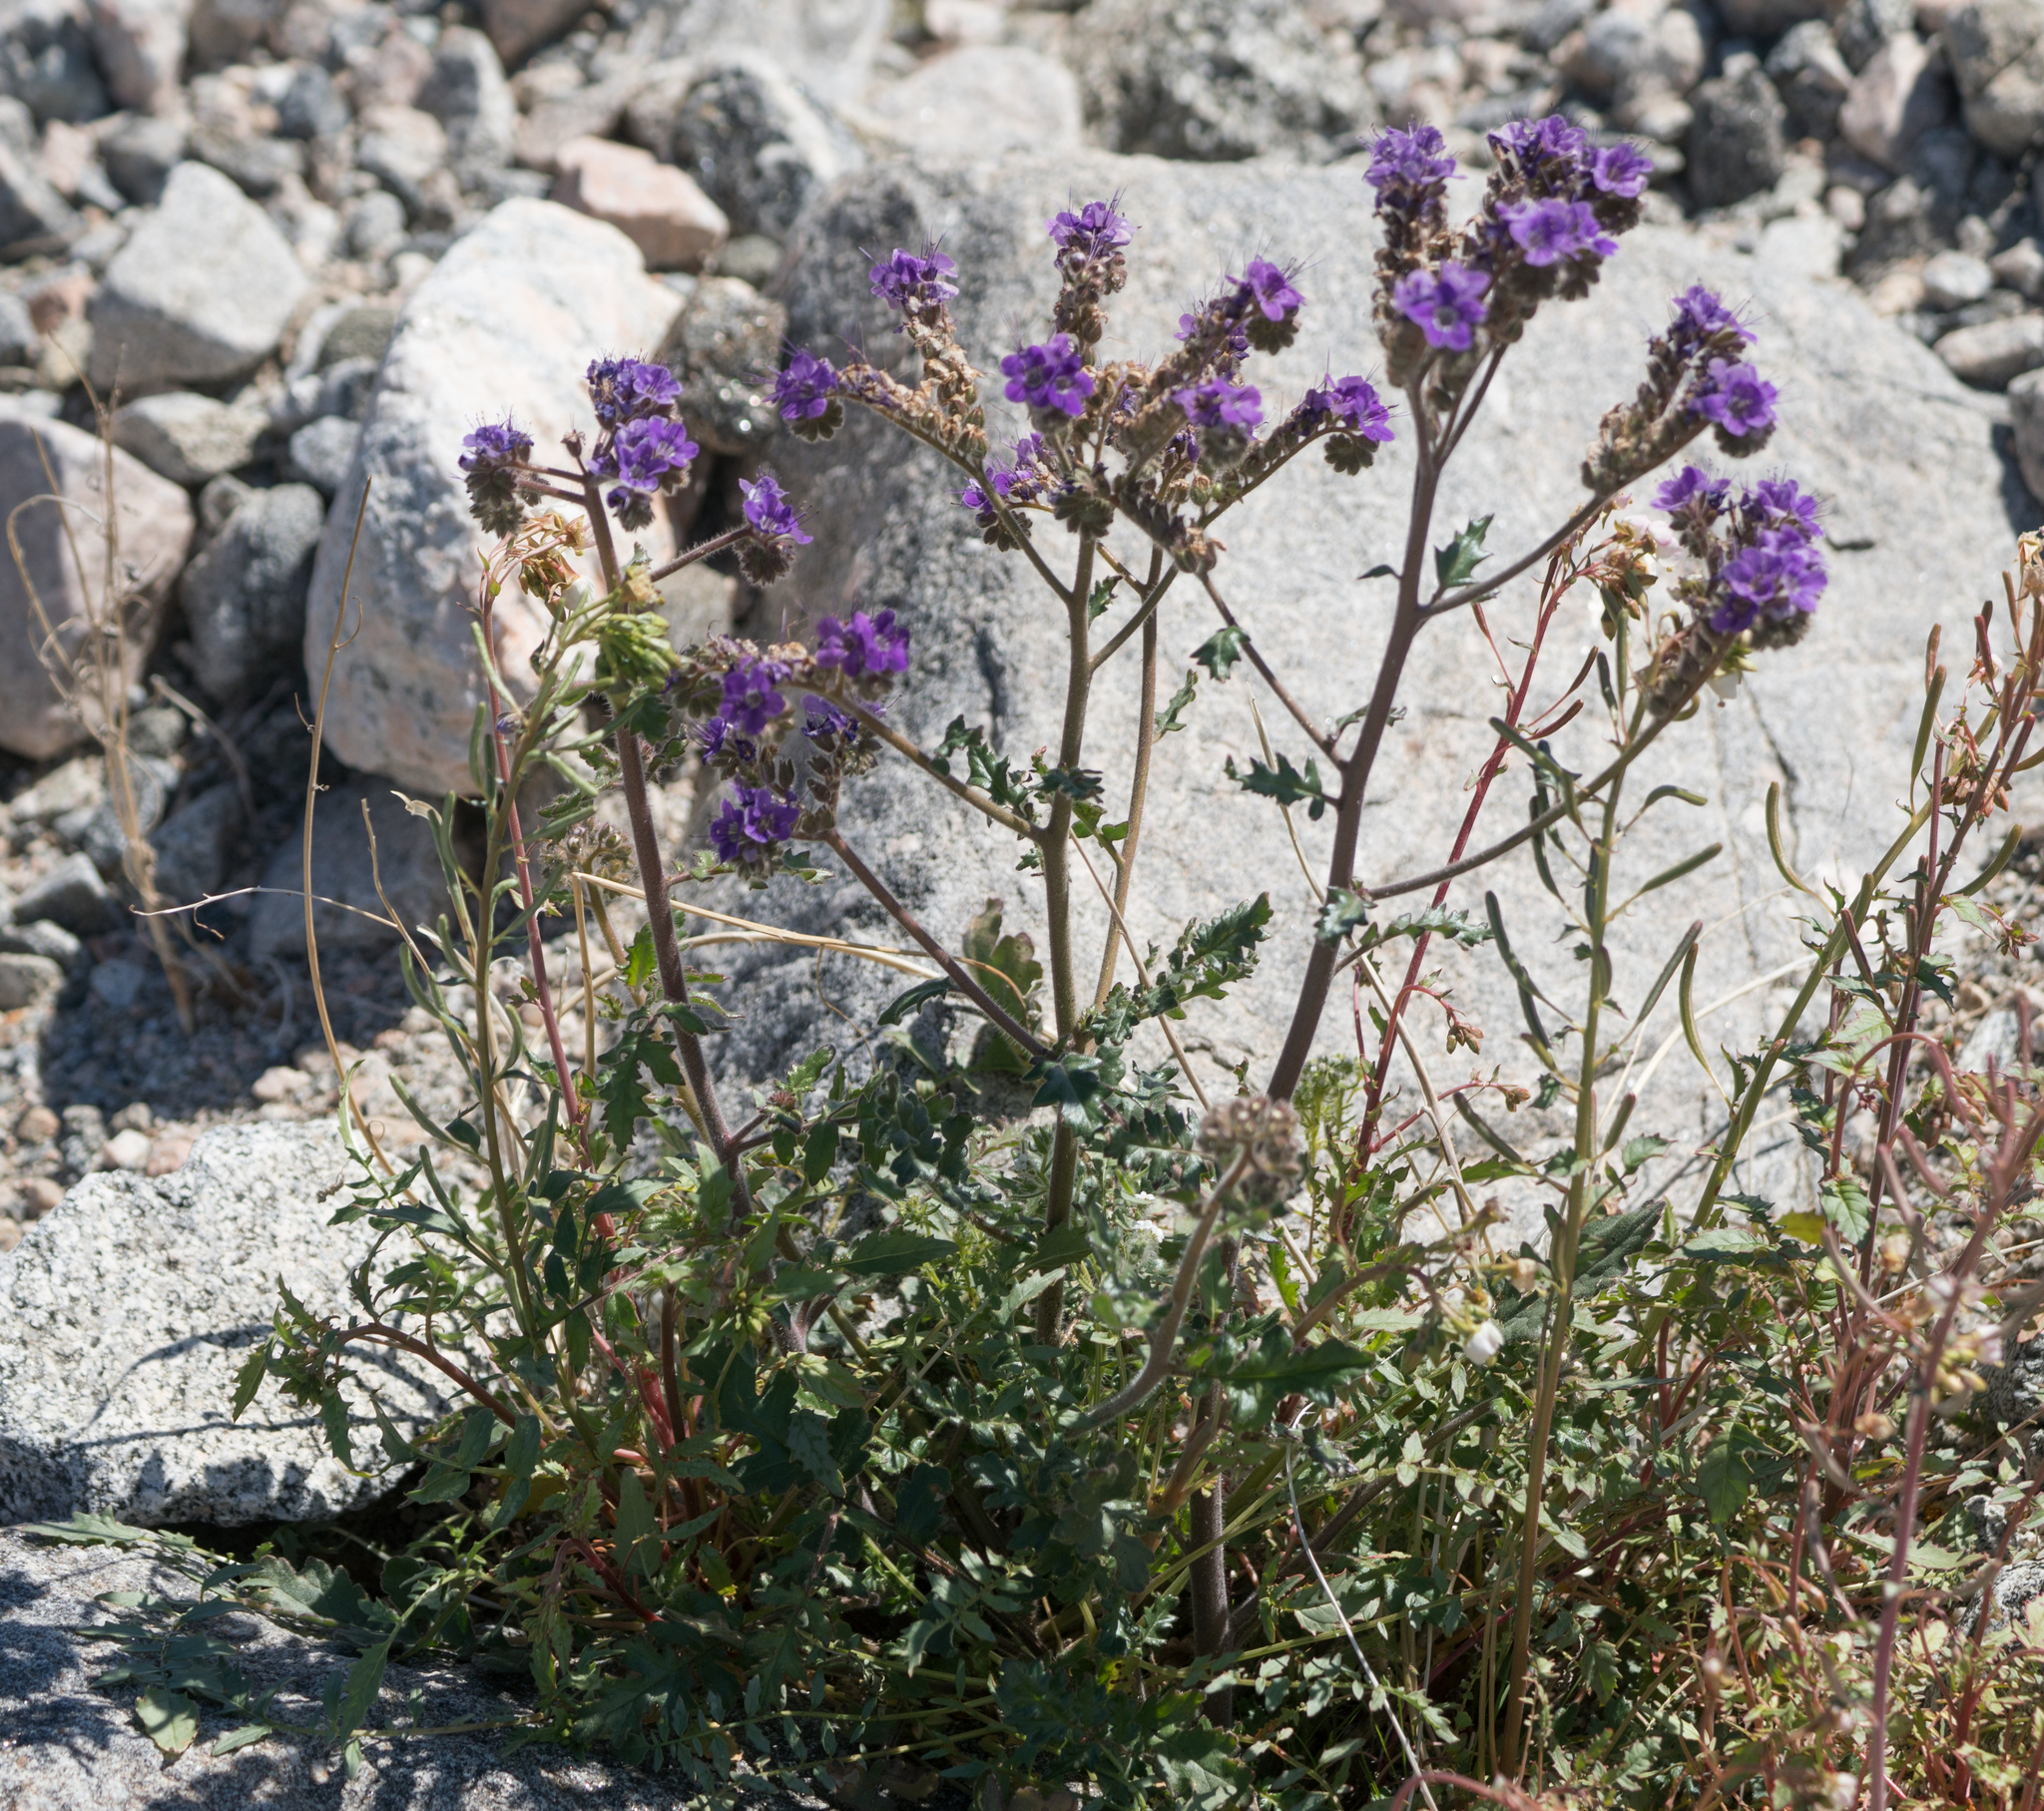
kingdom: Plantae
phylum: Tracheophyta
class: Magnoliopsida
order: Boraginales
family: Hydrophyllaceae
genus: Phacelia
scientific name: Phacelia crenulata
